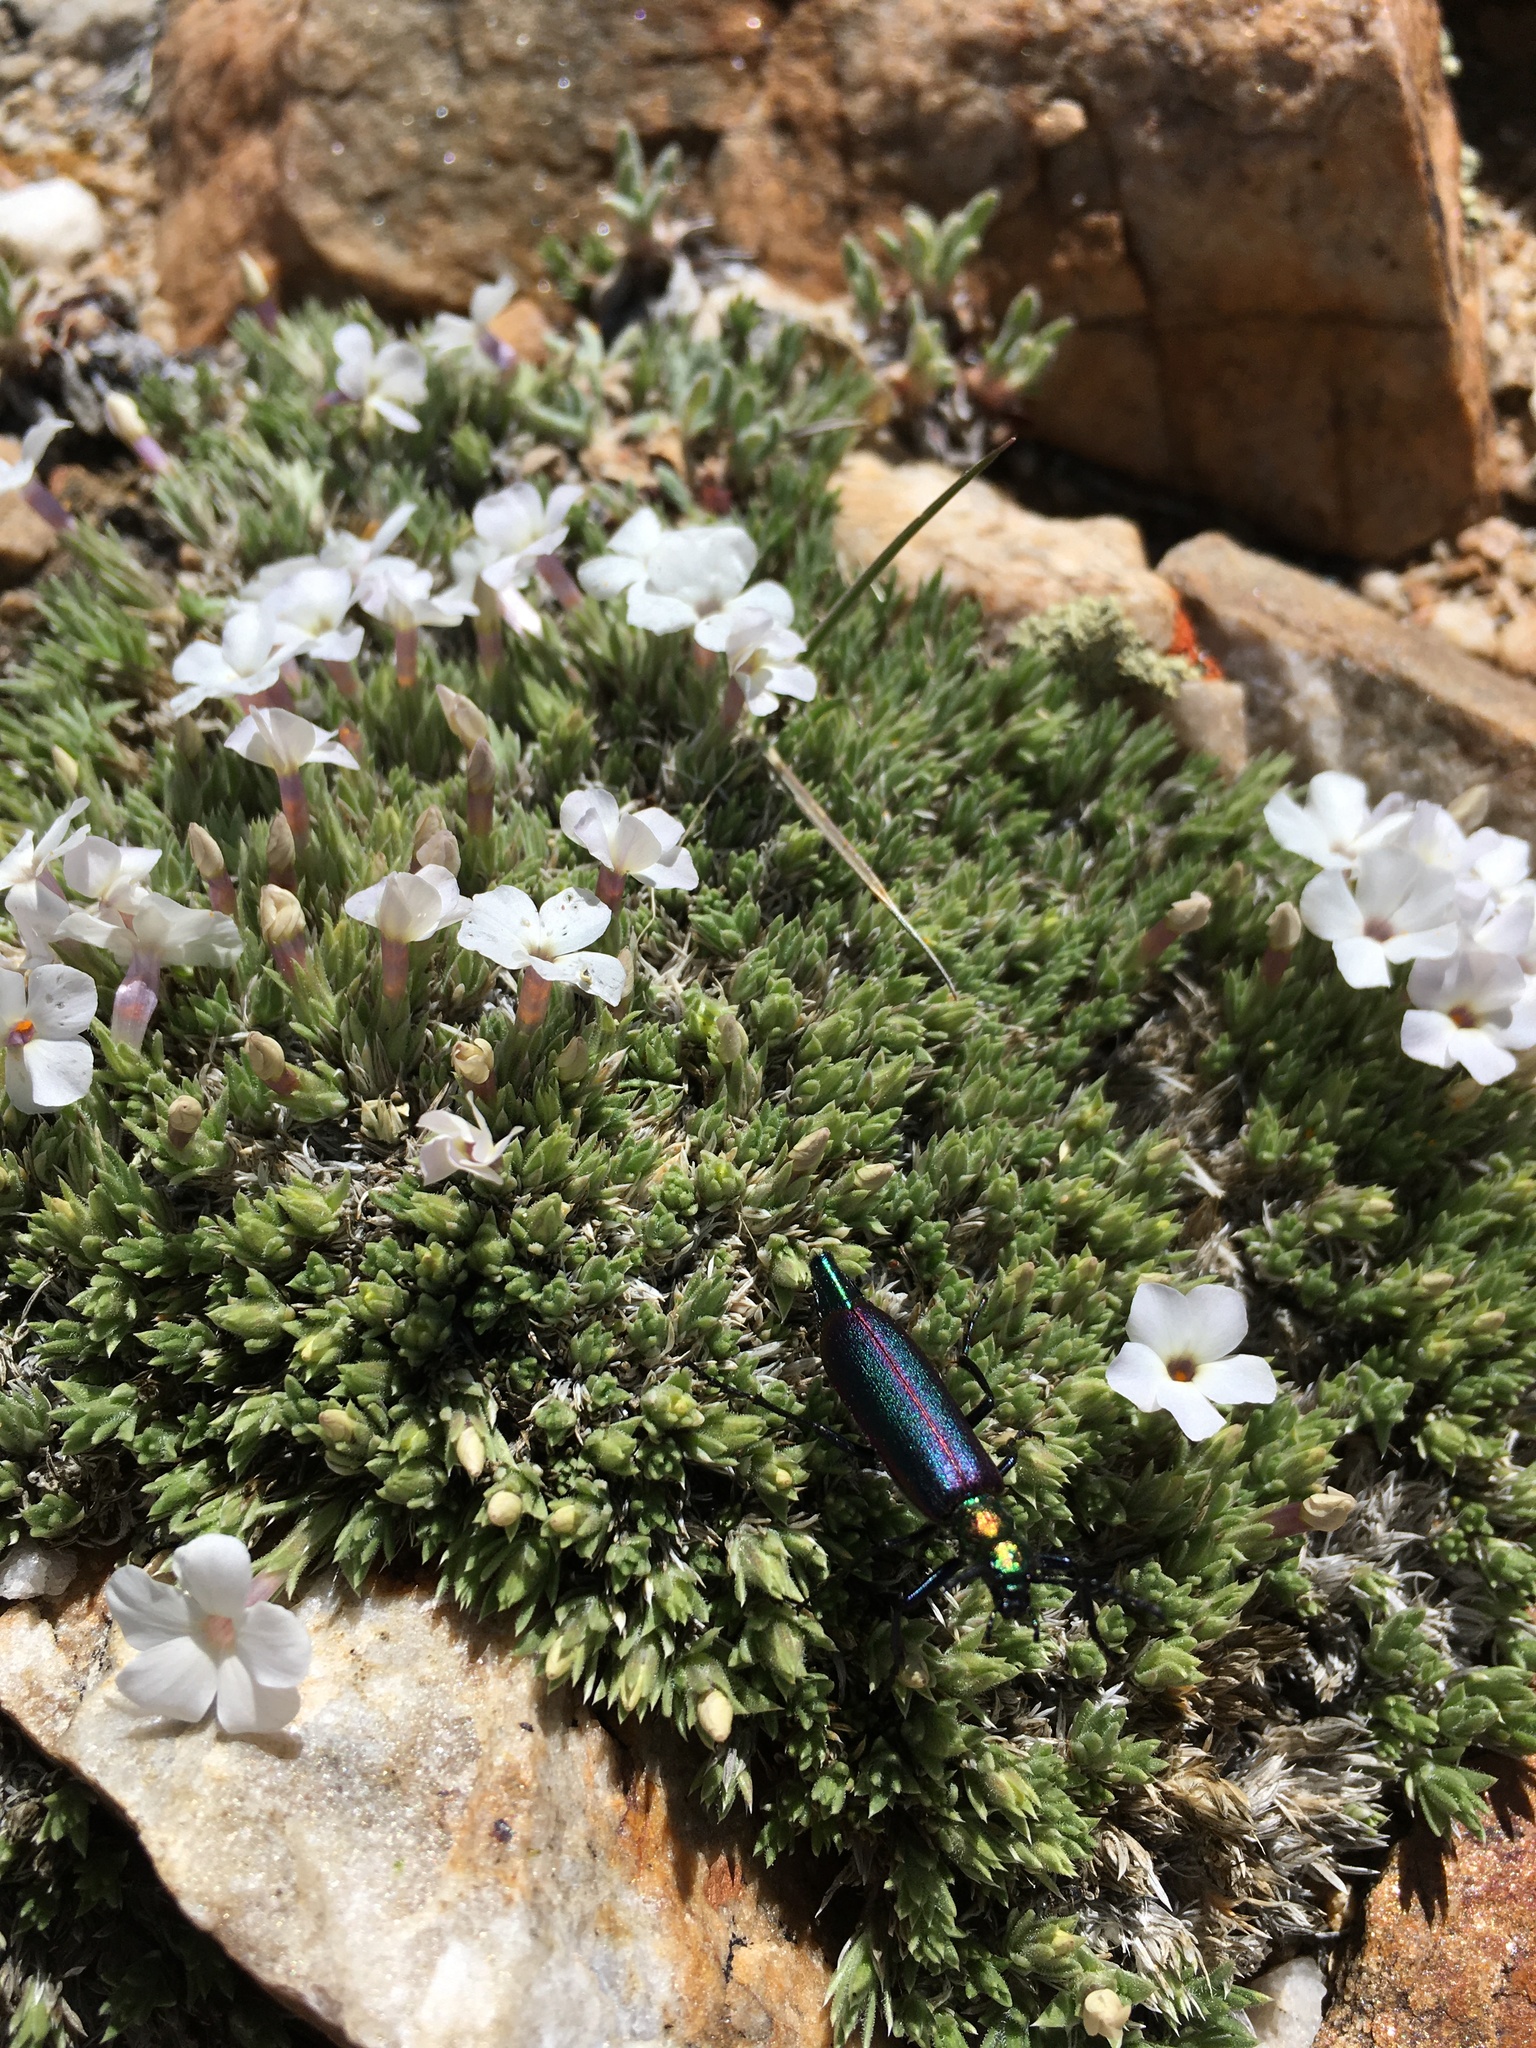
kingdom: Animalia
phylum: Arthropoda
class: Insecta
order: Coleoptera
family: Meloidae
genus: Lytta
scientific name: Lytta nuttallii
